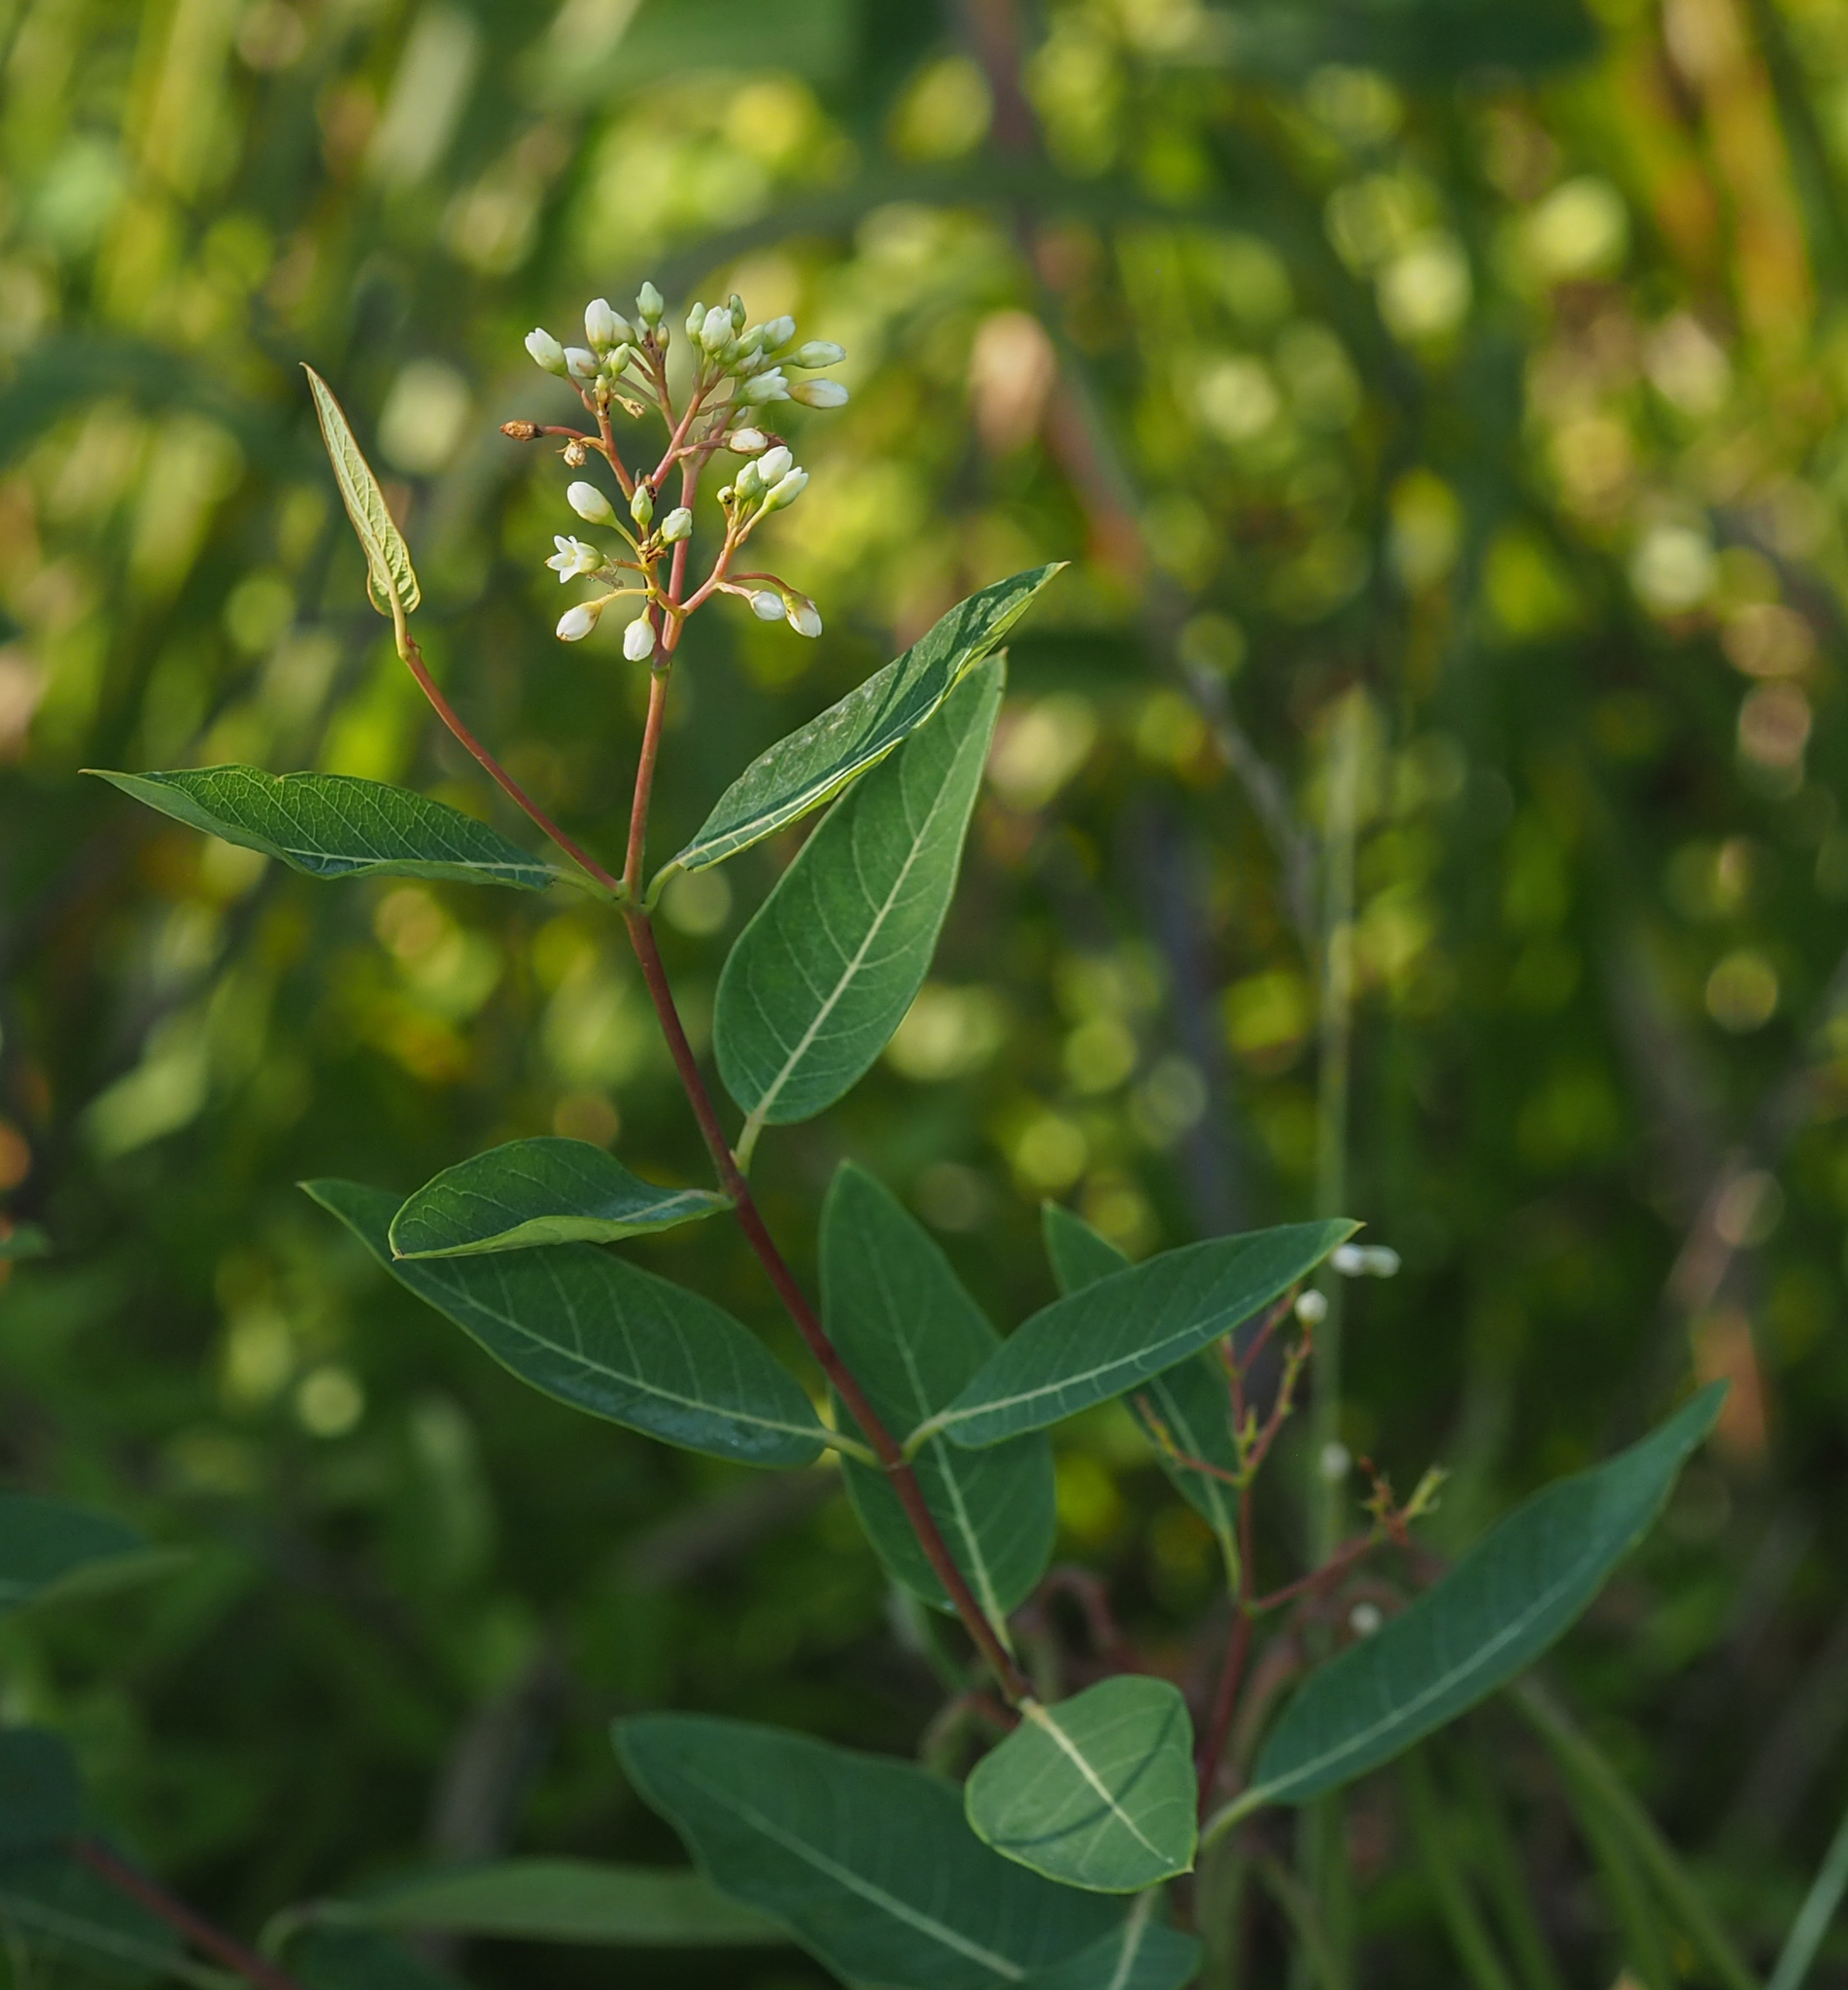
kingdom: Plantae
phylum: Tracheophyta
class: Magnoliopsida
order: Gentianales
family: Apocynaceae
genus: Apocynum
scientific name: Apocynum cannabinum
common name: Hemp dogbane
